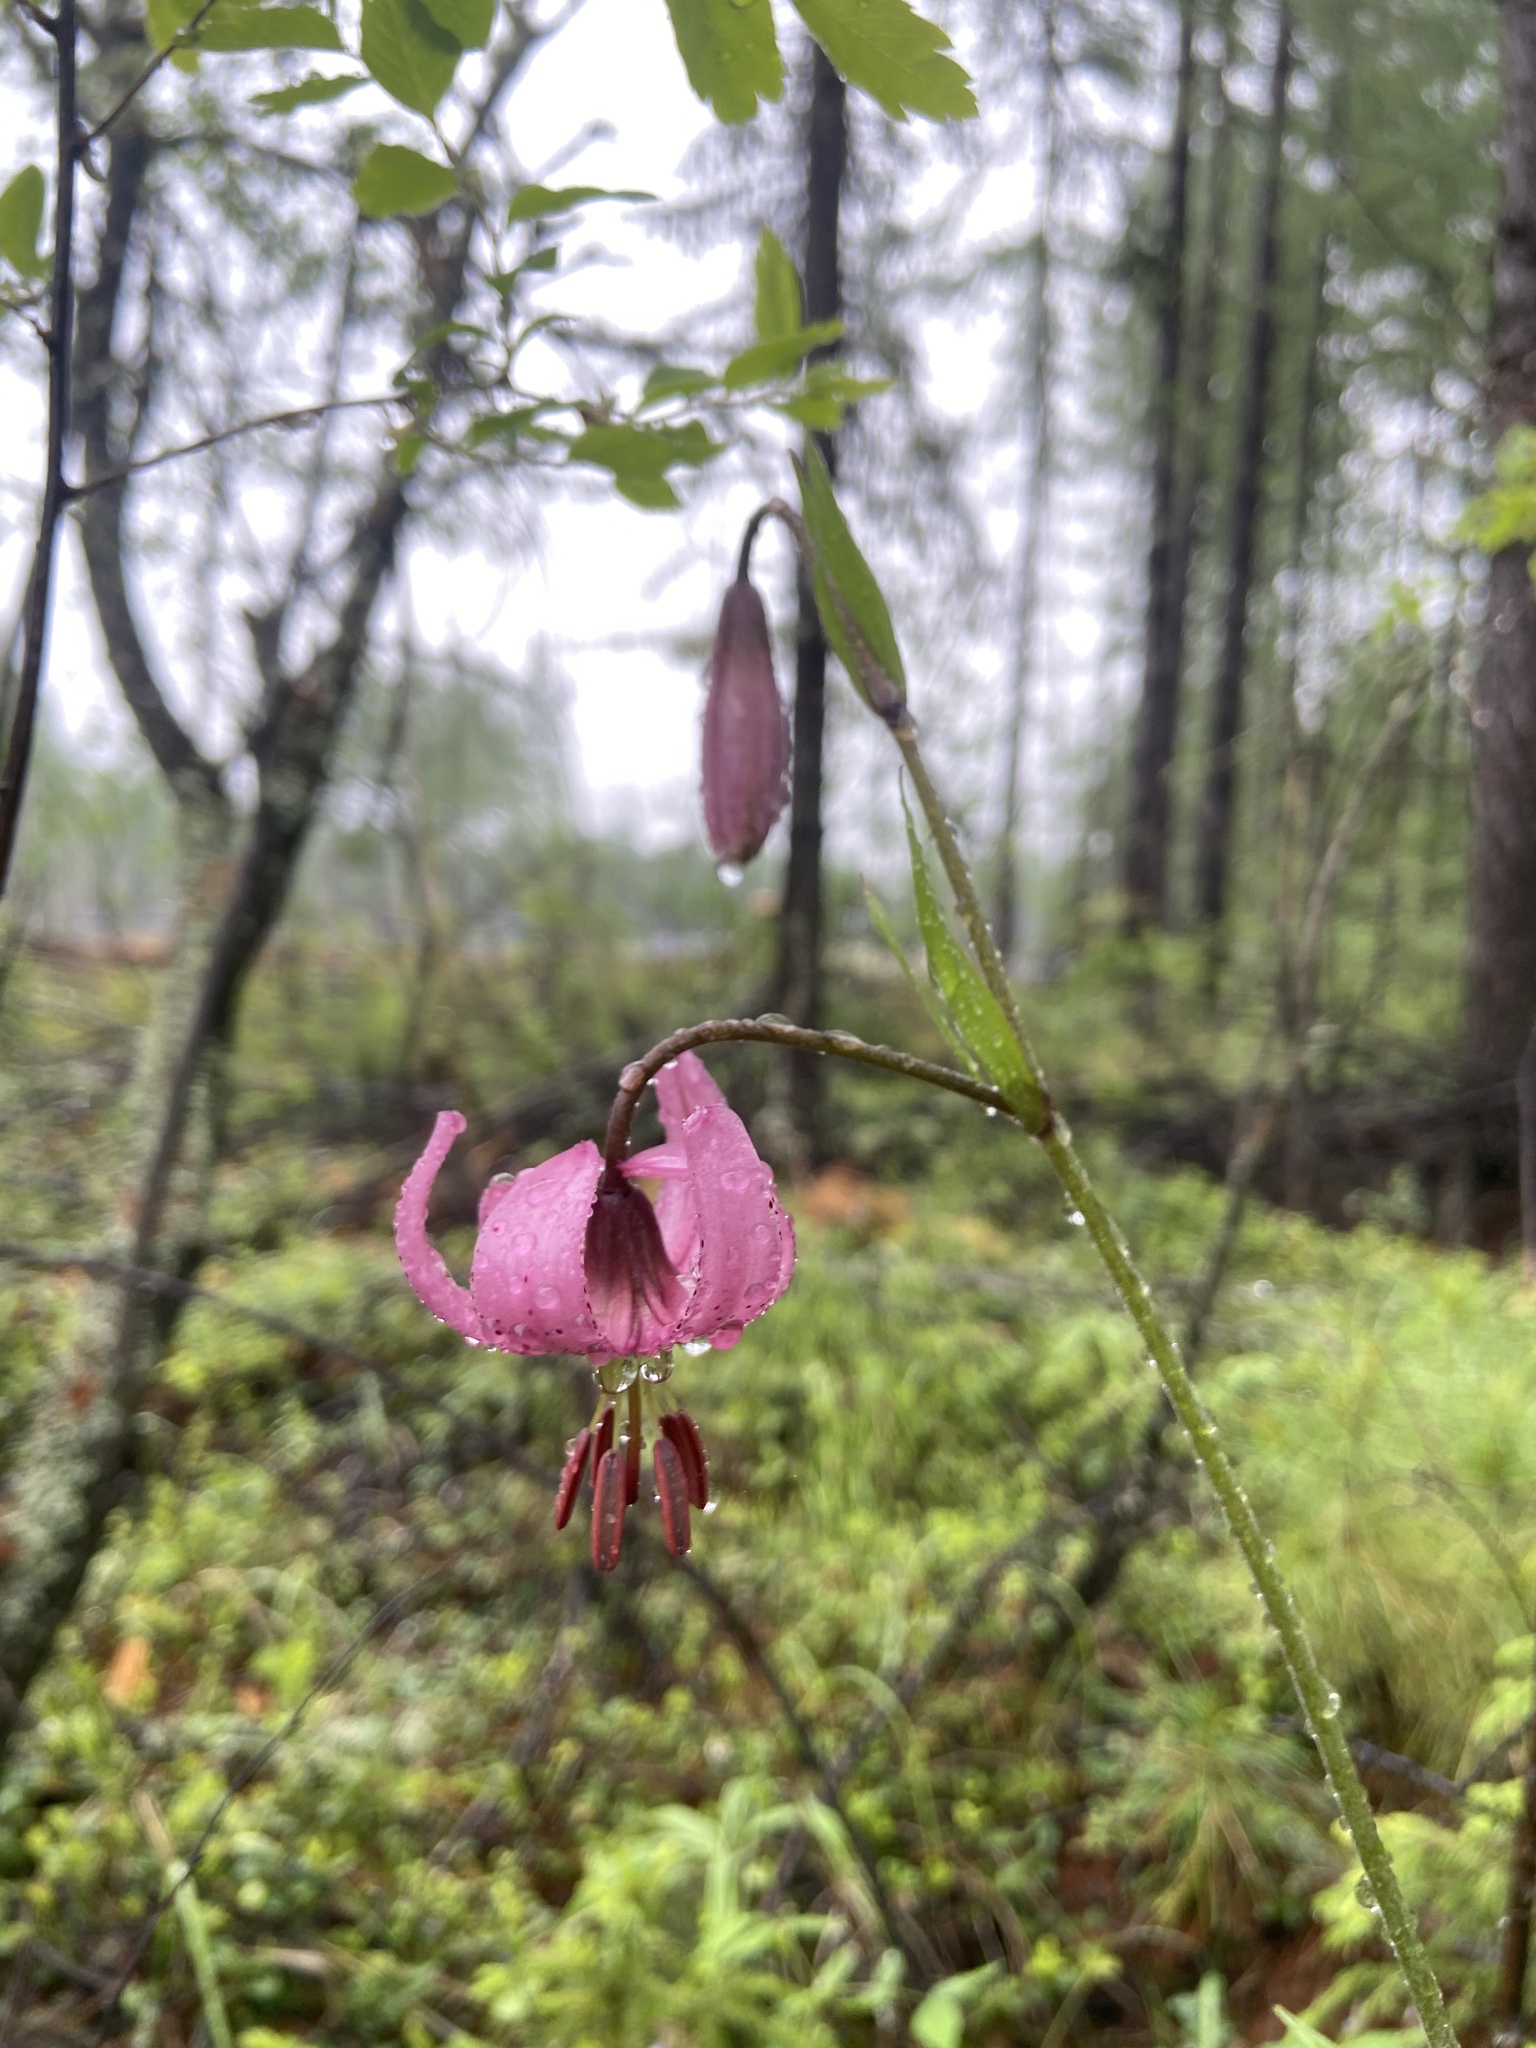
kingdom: Plantae
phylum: Tracheophyta
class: Liliopsida
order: Liliales
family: Liliaceae
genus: Lilium
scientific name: Lilium martagon
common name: Martagon lily
